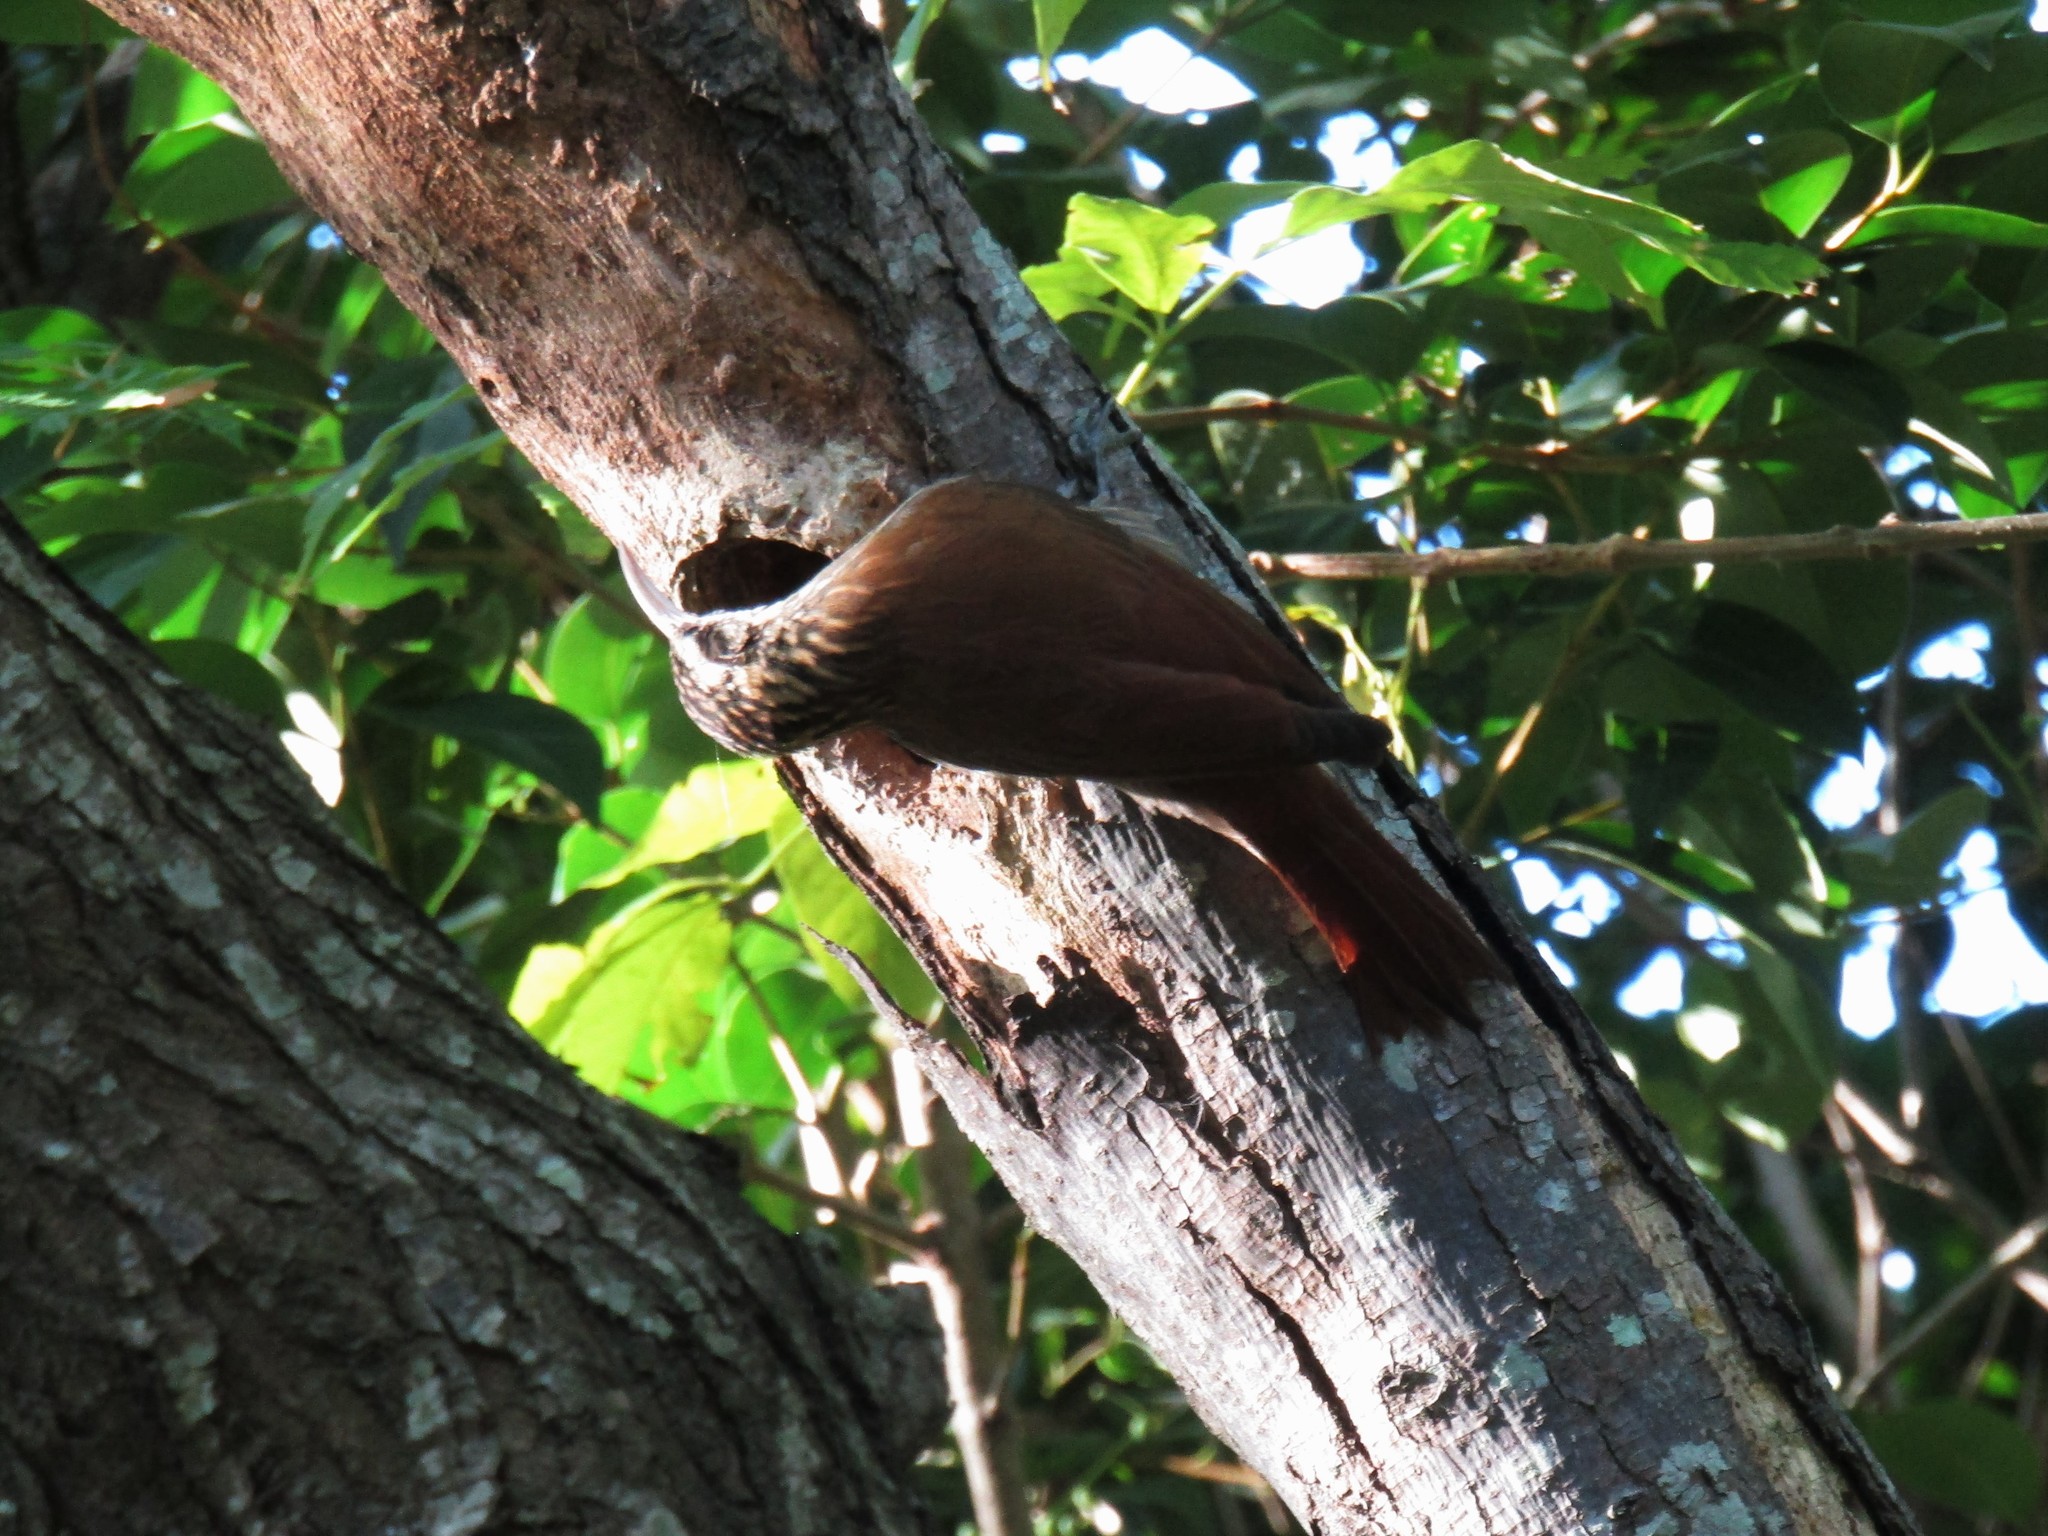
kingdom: Animalia
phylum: Chordata
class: Aves
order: Passeriformes
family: Furnariidae
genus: Lepidocolaptes
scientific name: Lepidocolaptes angustirostris
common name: Narrow-billed woodcreeper
